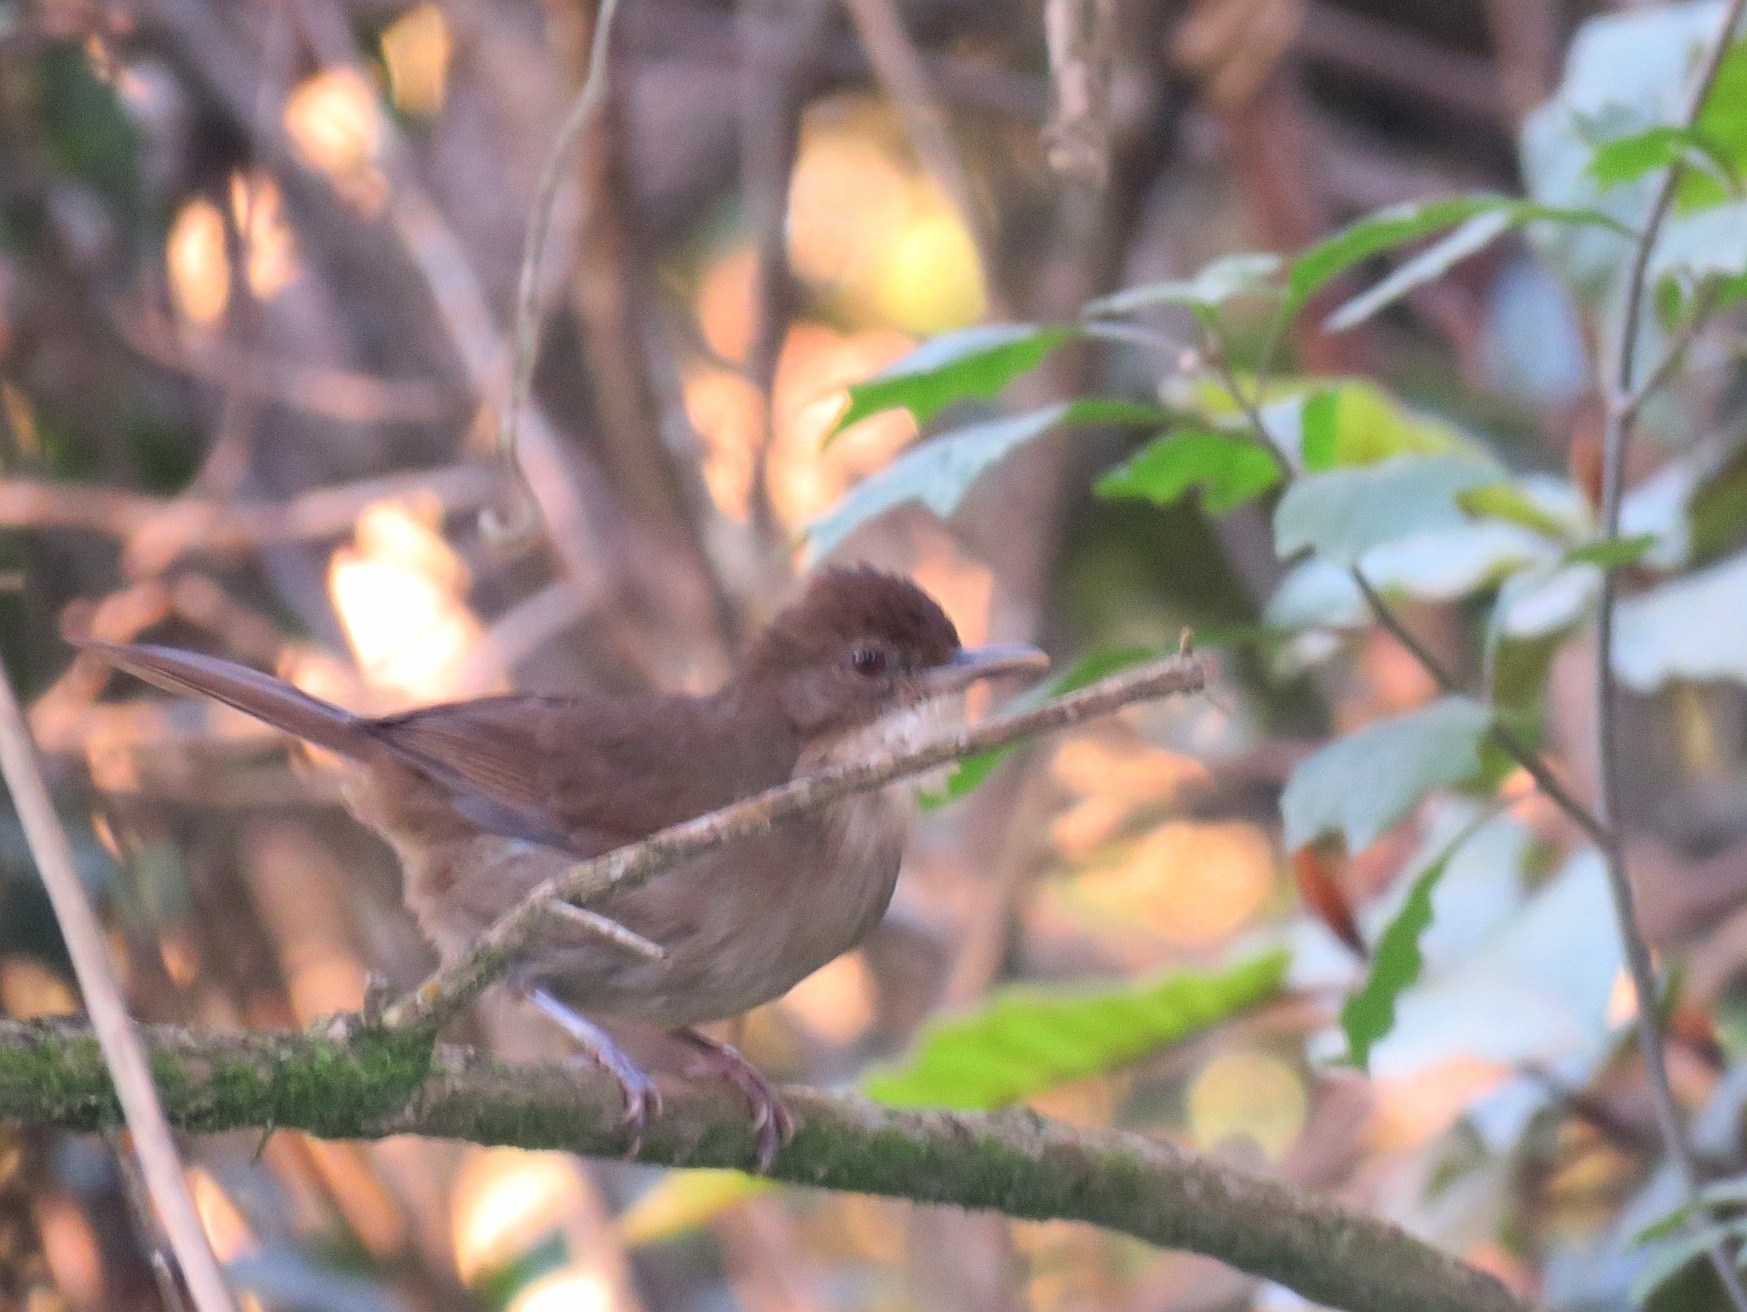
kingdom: Animalia
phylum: Chordata
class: Aves
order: Passeriformes
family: Pycnonotidae
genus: Phyllastrephus
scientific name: Phyllastrephus terrestris
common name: Terrestrial brownbul
